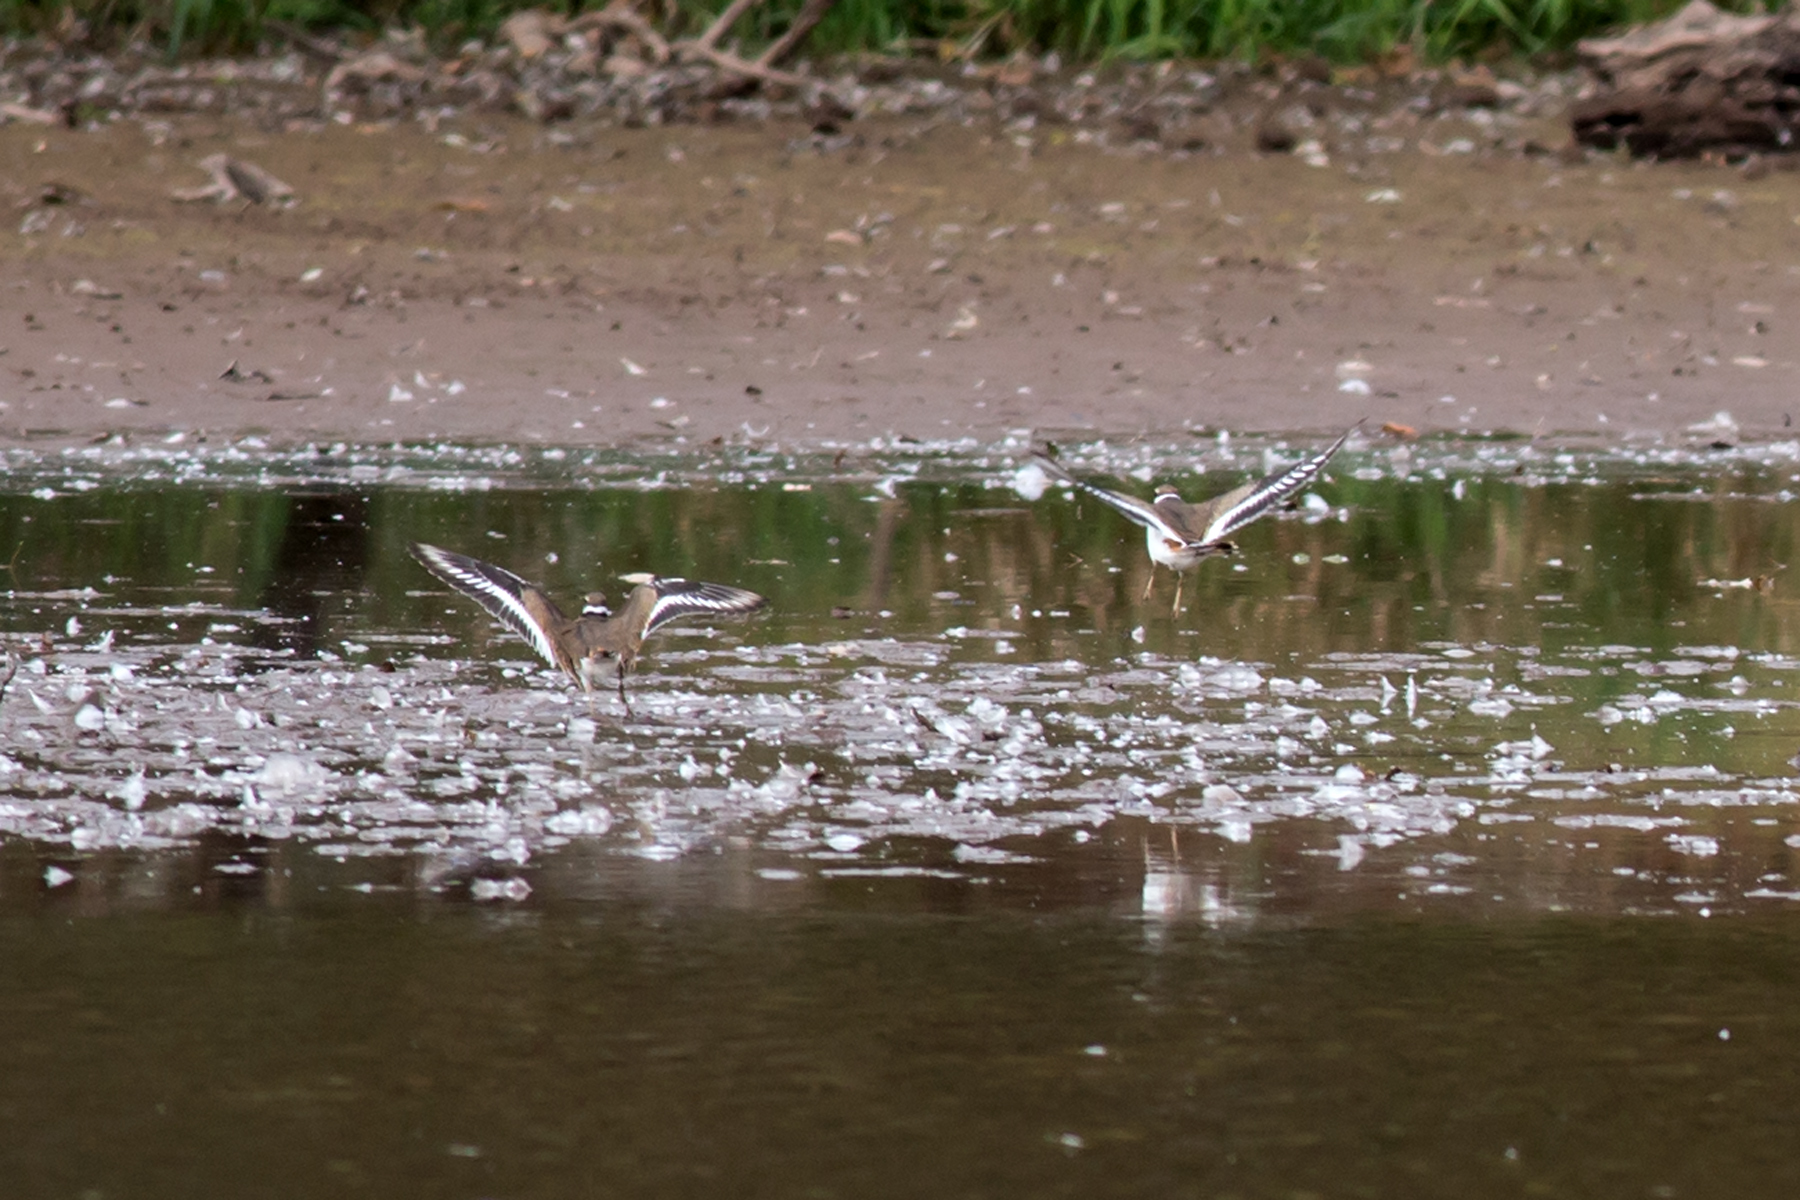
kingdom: Animalia
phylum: Chordata
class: Aves
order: Charadriiformes
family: Charadriidae
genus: Charadrius
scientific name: Charadrius vociferus
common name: Killdeer
